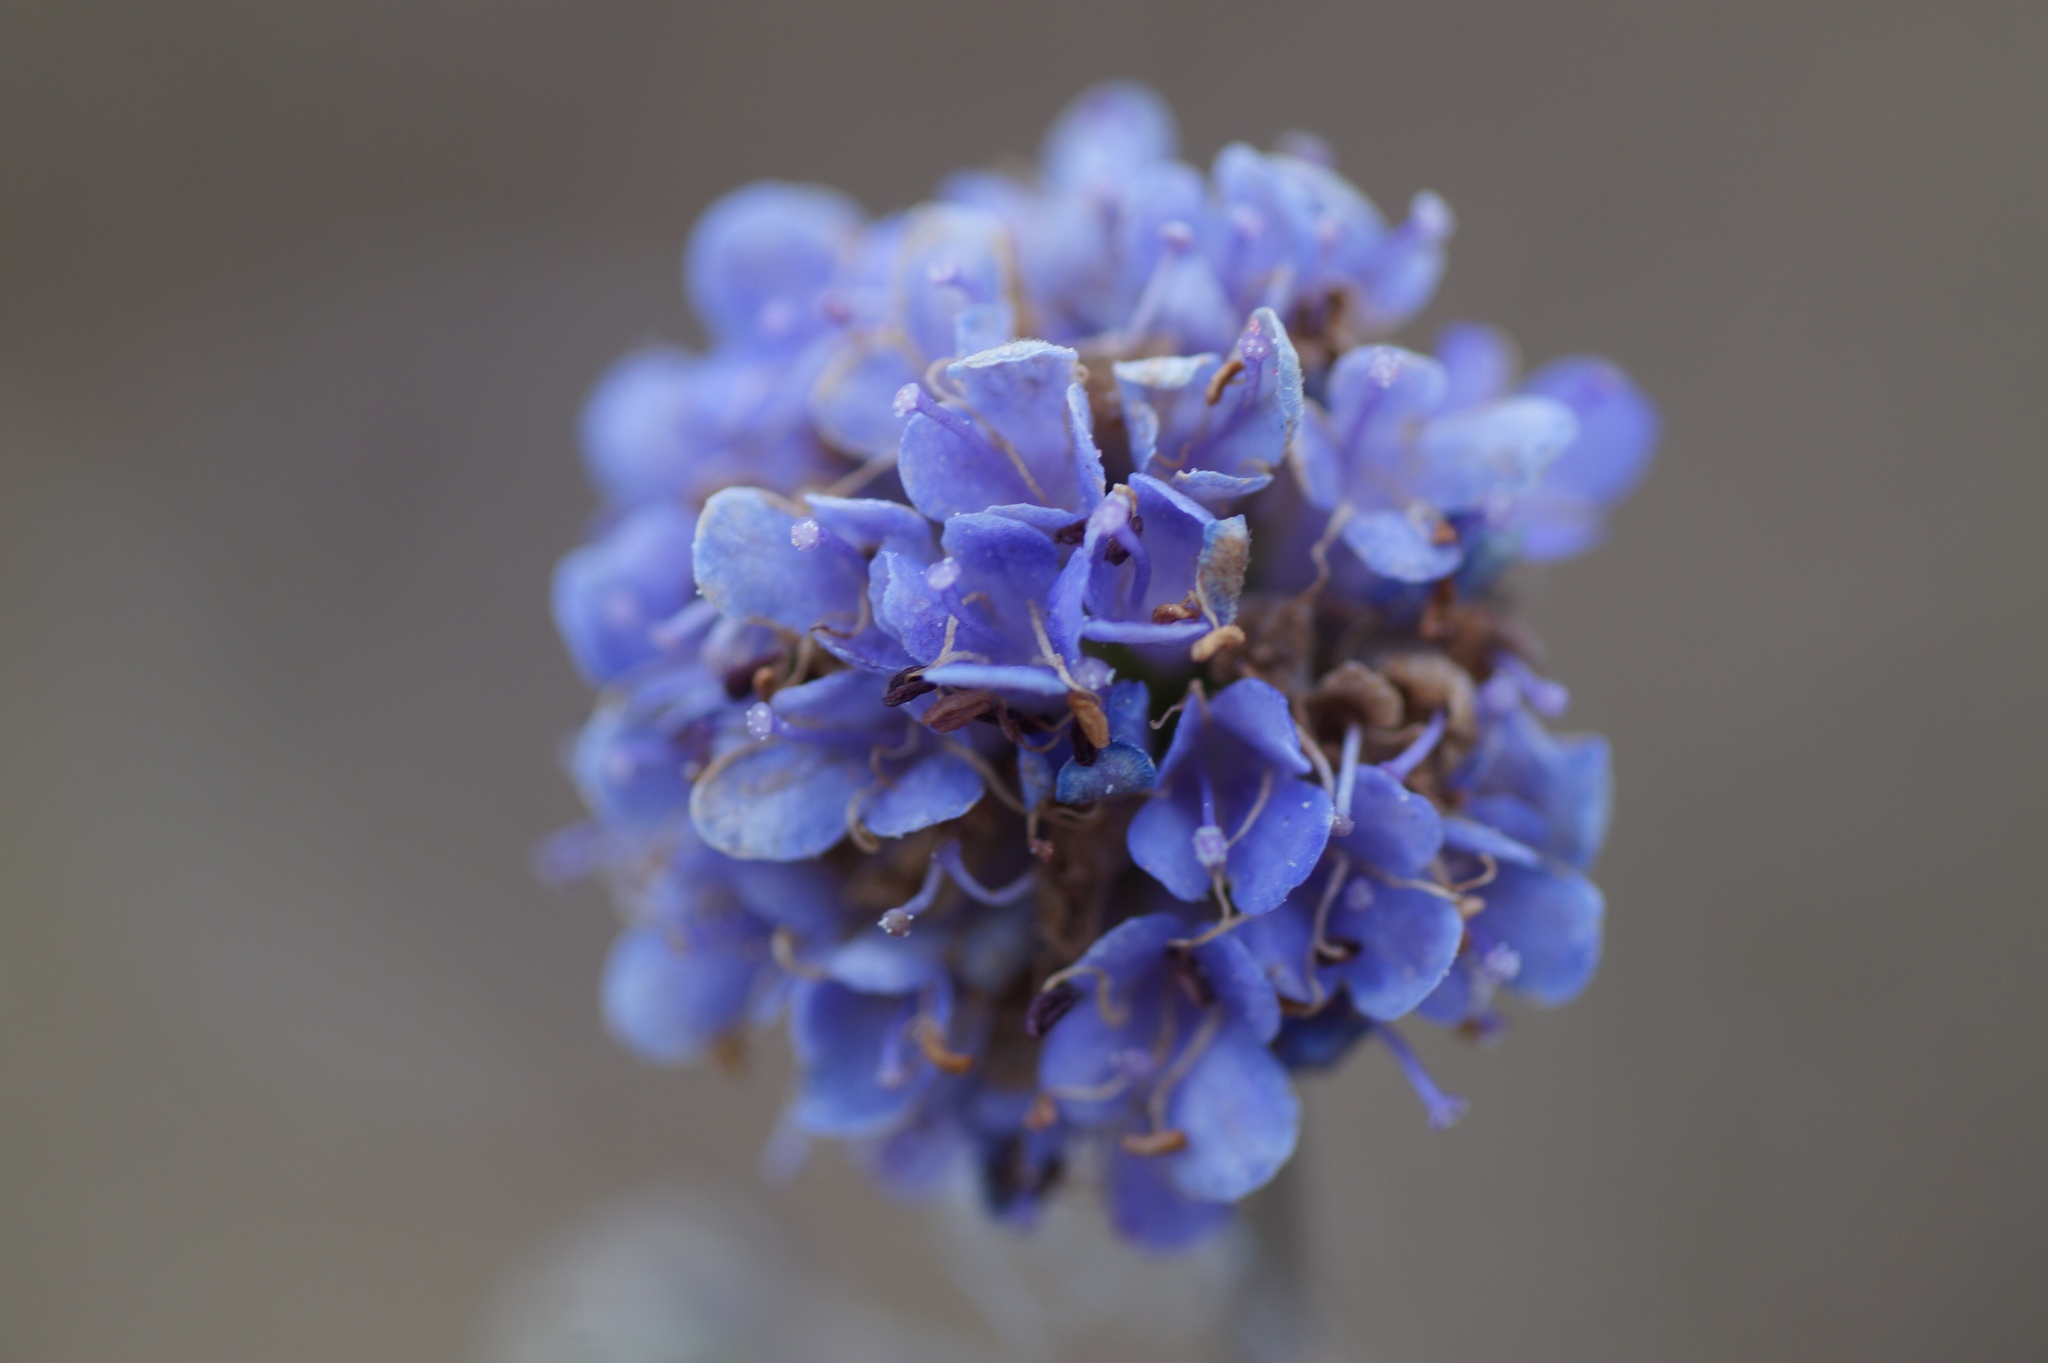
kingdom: Plantae
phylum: Tracheophyta
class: Magnoliopsida
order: Dipsacales
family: Caprifoliaceae
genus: Succisa
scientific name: Succisa pratensis
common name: Devil's-bit
